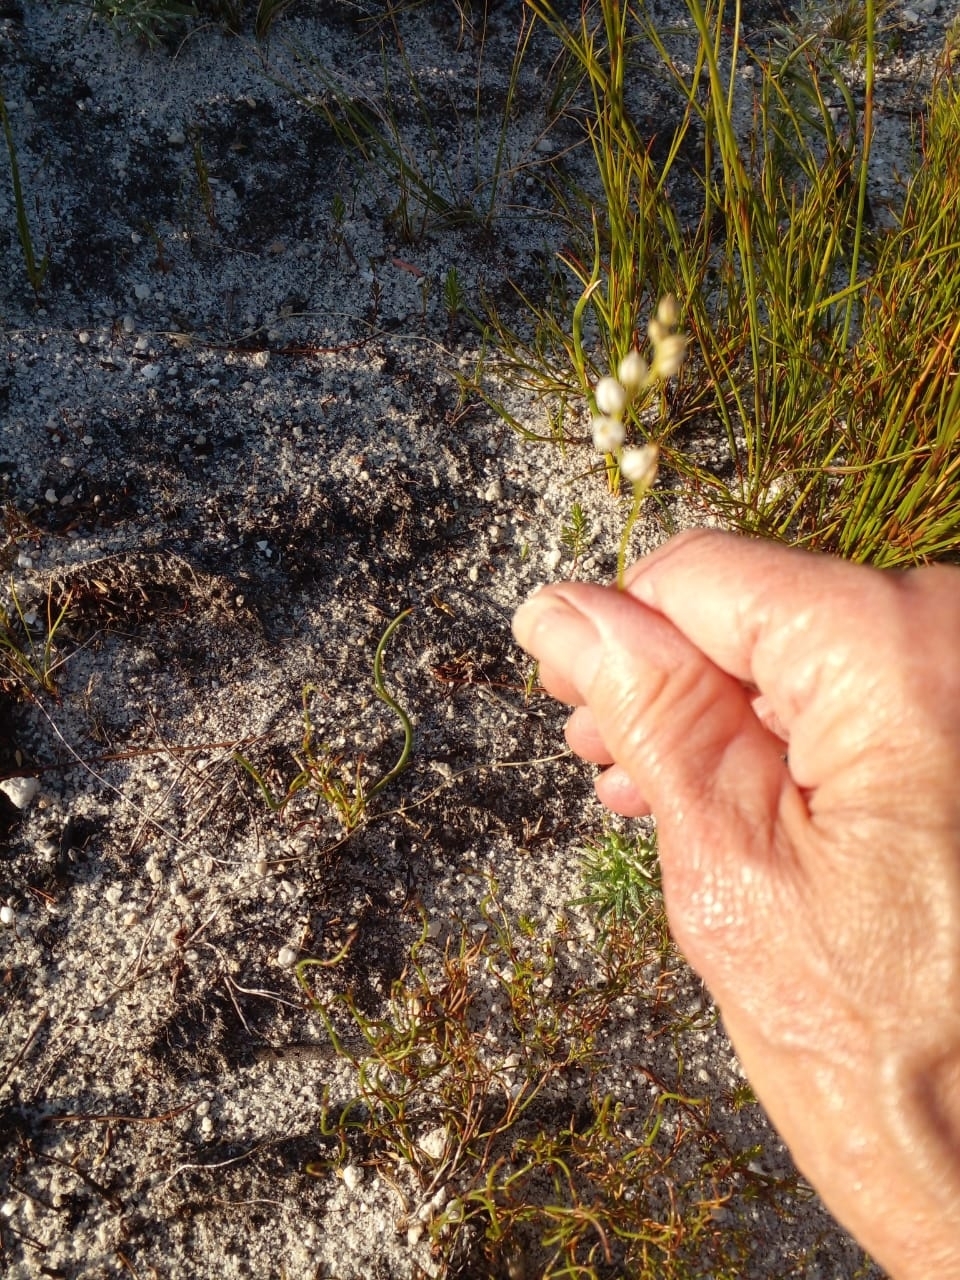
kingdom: Plantae
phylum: Tracheophyta
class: Liliopsida
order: Asparagales
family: Asparagaceae
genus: Eriospermum
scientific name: Eriospermum cernuum
